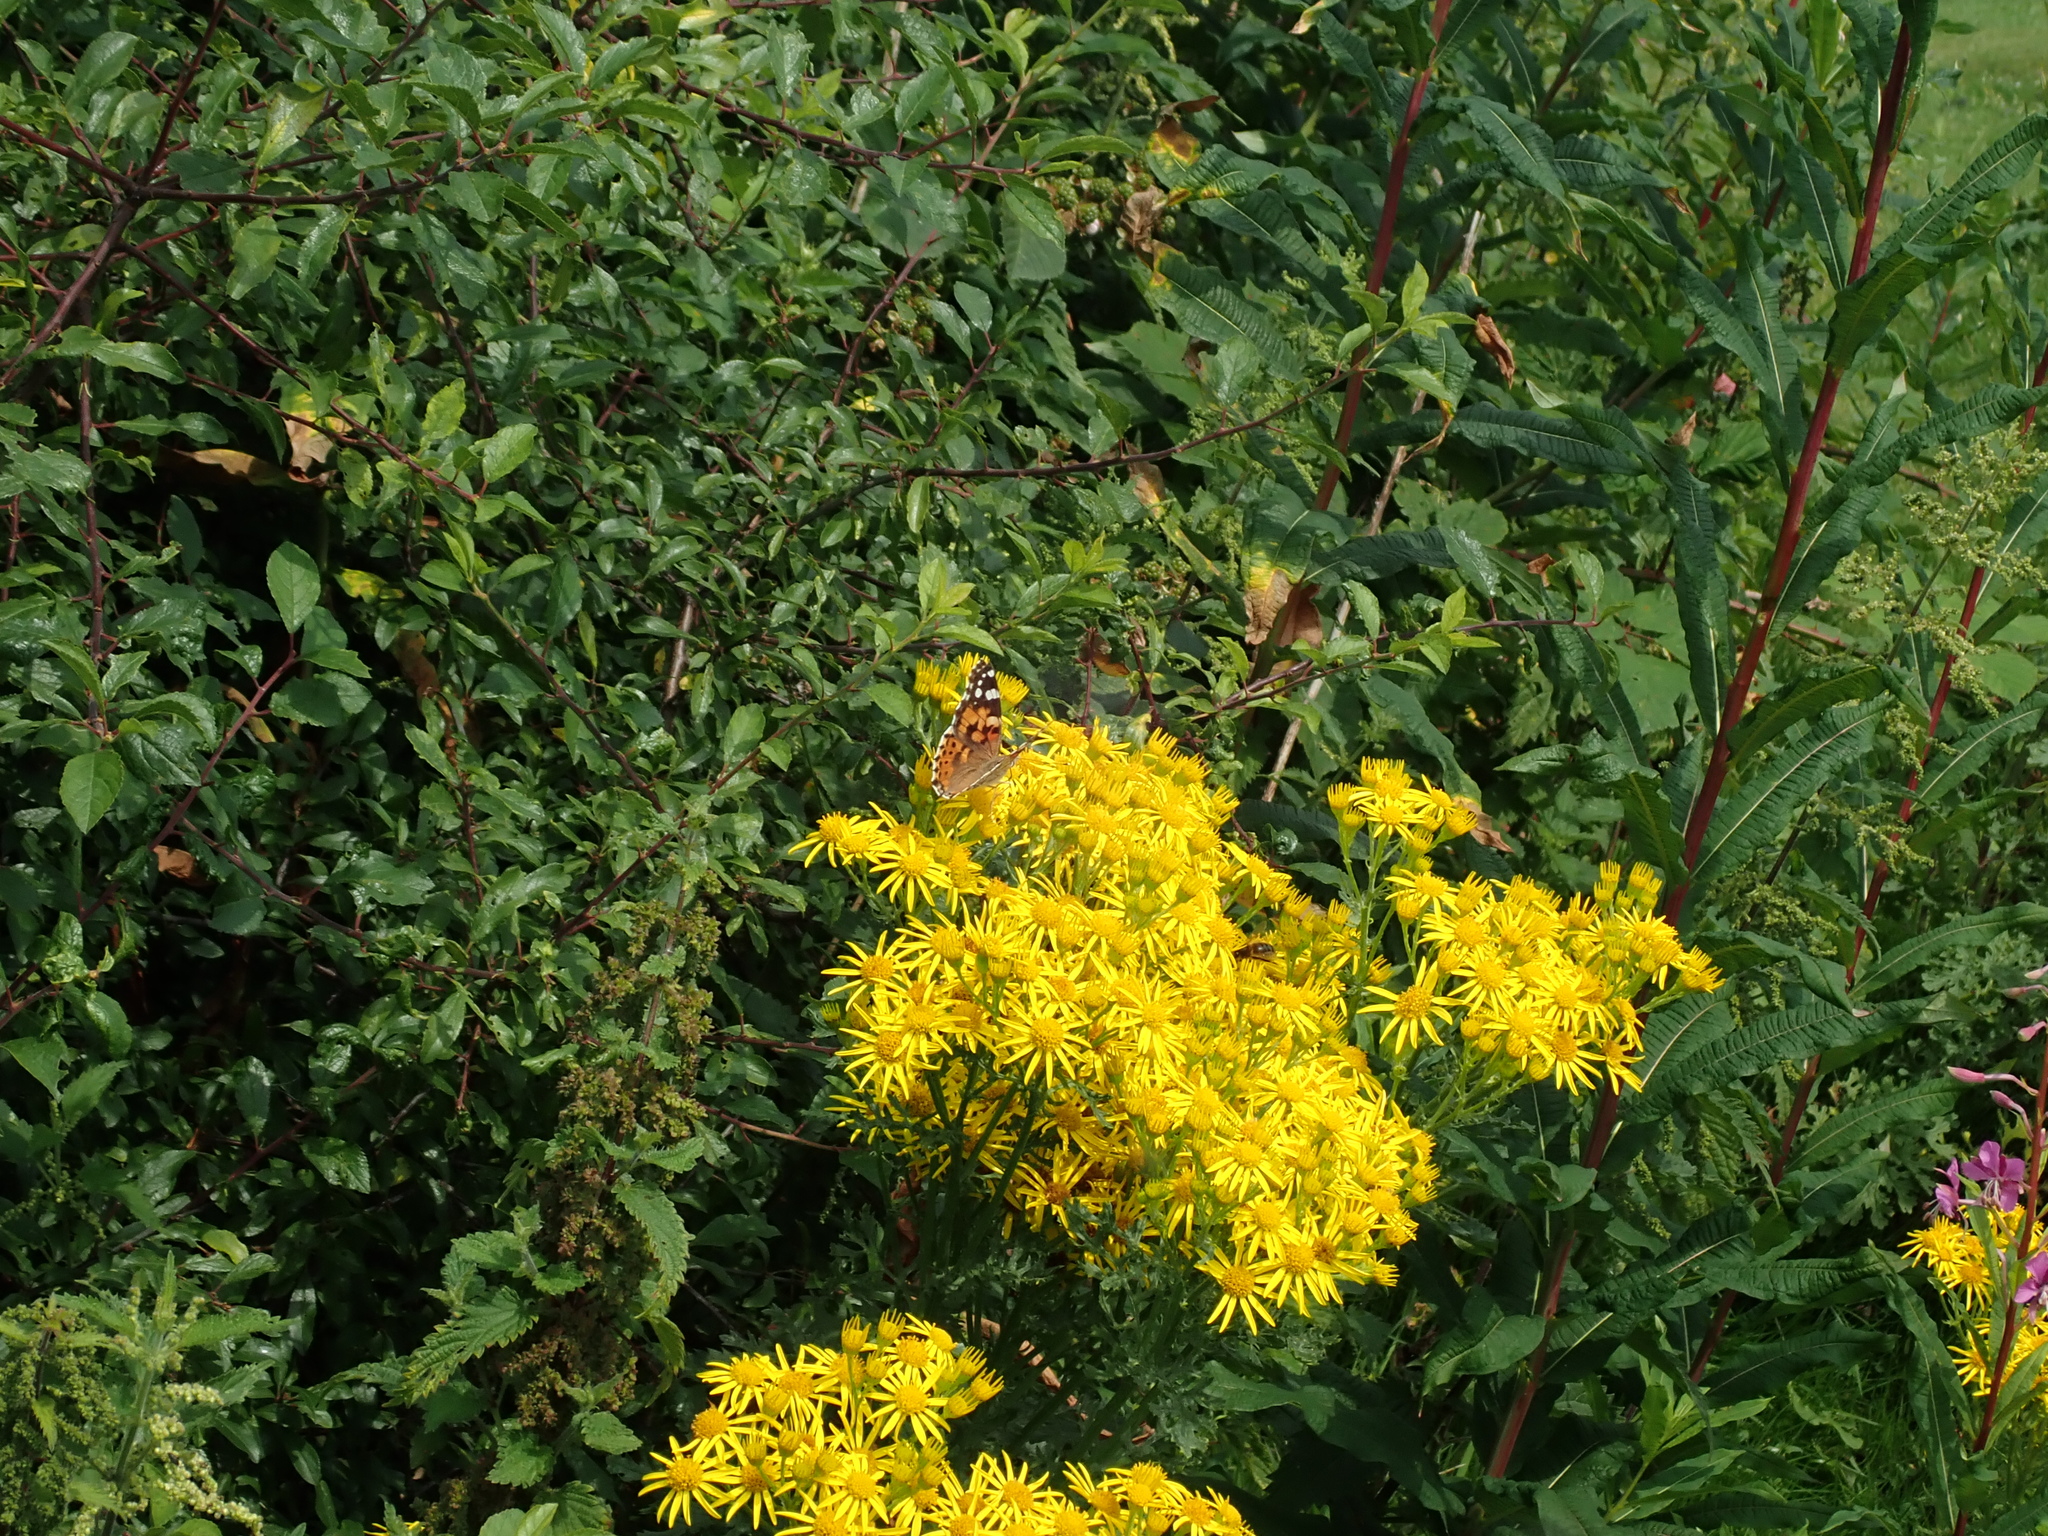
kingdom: Animalia
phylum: Arthropoda
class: Insecta
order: Lepidoptera
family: Nymphalidae
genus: Vanessa
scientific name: Vanessa cardui
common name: Painted lady
